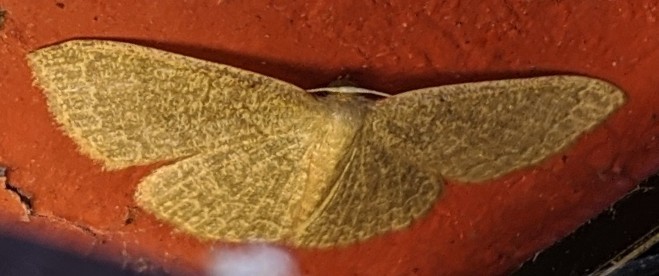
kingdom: Animalia
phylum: Arthropoda
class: Insecta
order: Lepidoptera
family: Geometridae
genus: Pleuroprucha
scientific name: Pleuroprucha insulsaria
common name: Common tan wave
